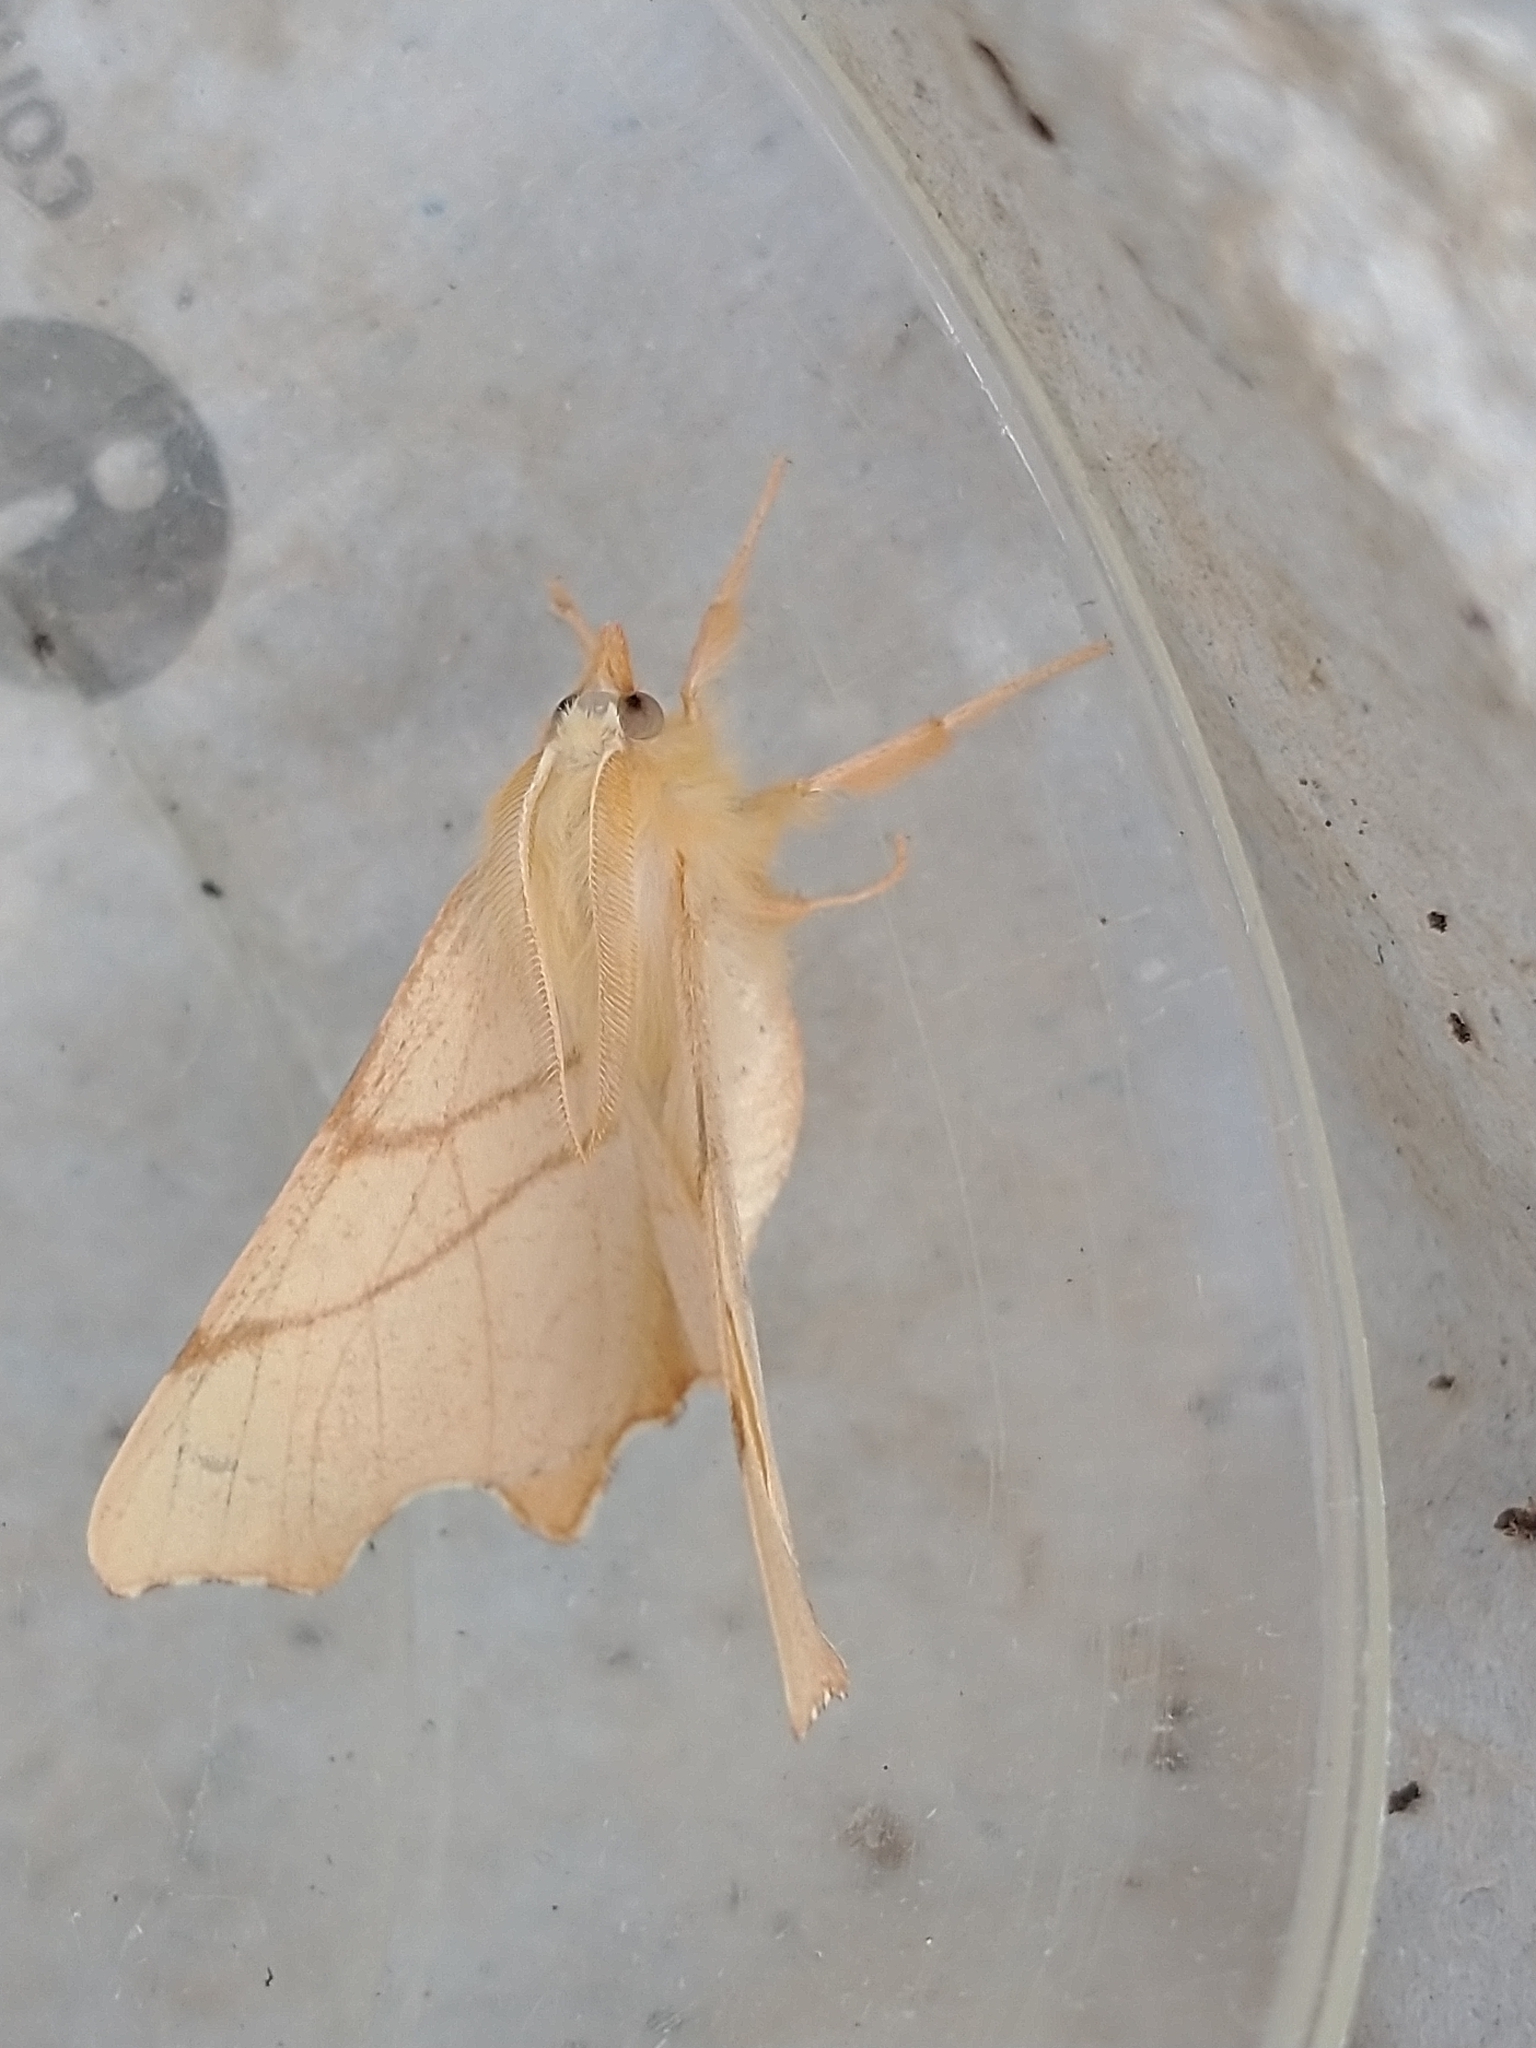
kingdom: Animalia
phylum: Arthropoda
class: Insecta
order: Lepidoptera
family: Geometridae
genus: Ennomos
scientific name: Ennomos erosaria
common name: September thorn
